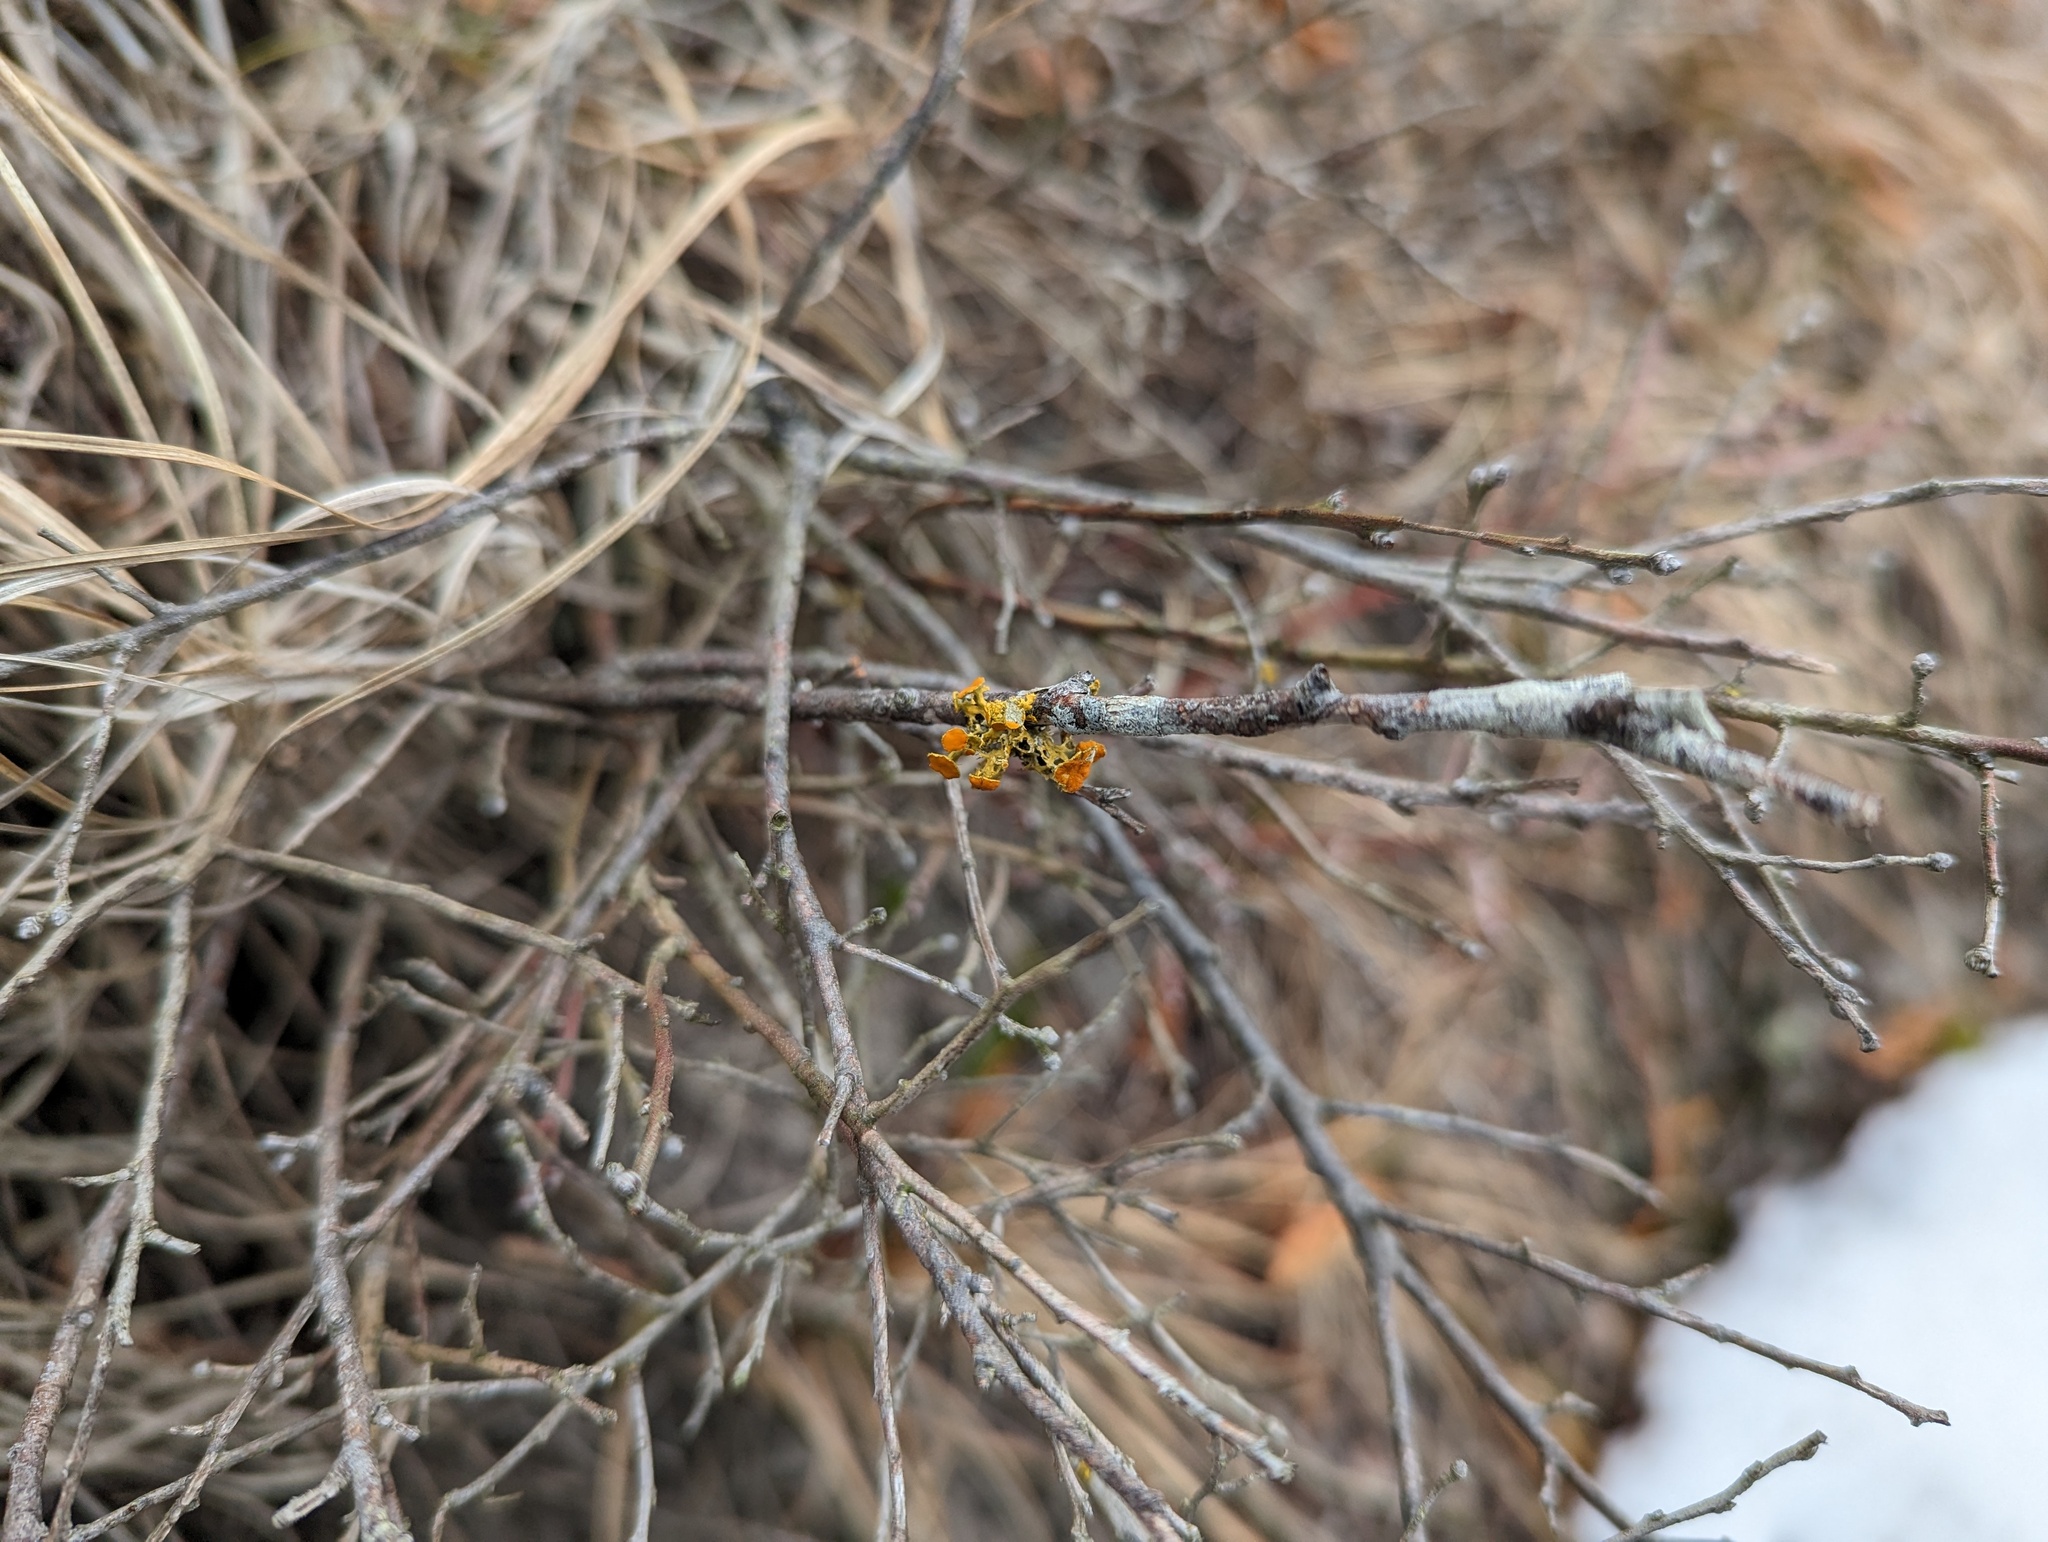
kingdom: Fungi
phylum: Ascomycota
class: Lecanoromycetes
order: Teloschistales
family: Teloschistaceae
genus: Niorma
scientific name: Niorma chrysophthalma
